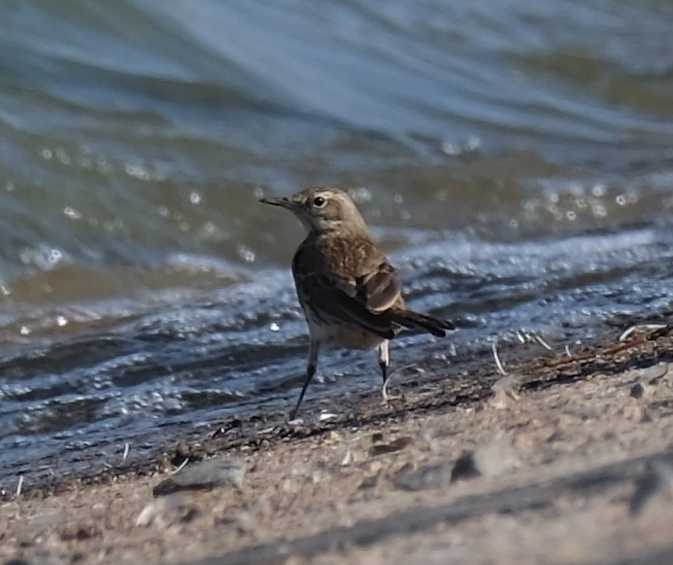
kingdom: Animalia
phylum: Chordata
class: Aves
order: Passeriformes
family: Motacillidae
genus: Anthus
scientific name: Anthus spinoletta
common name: Water pipit
